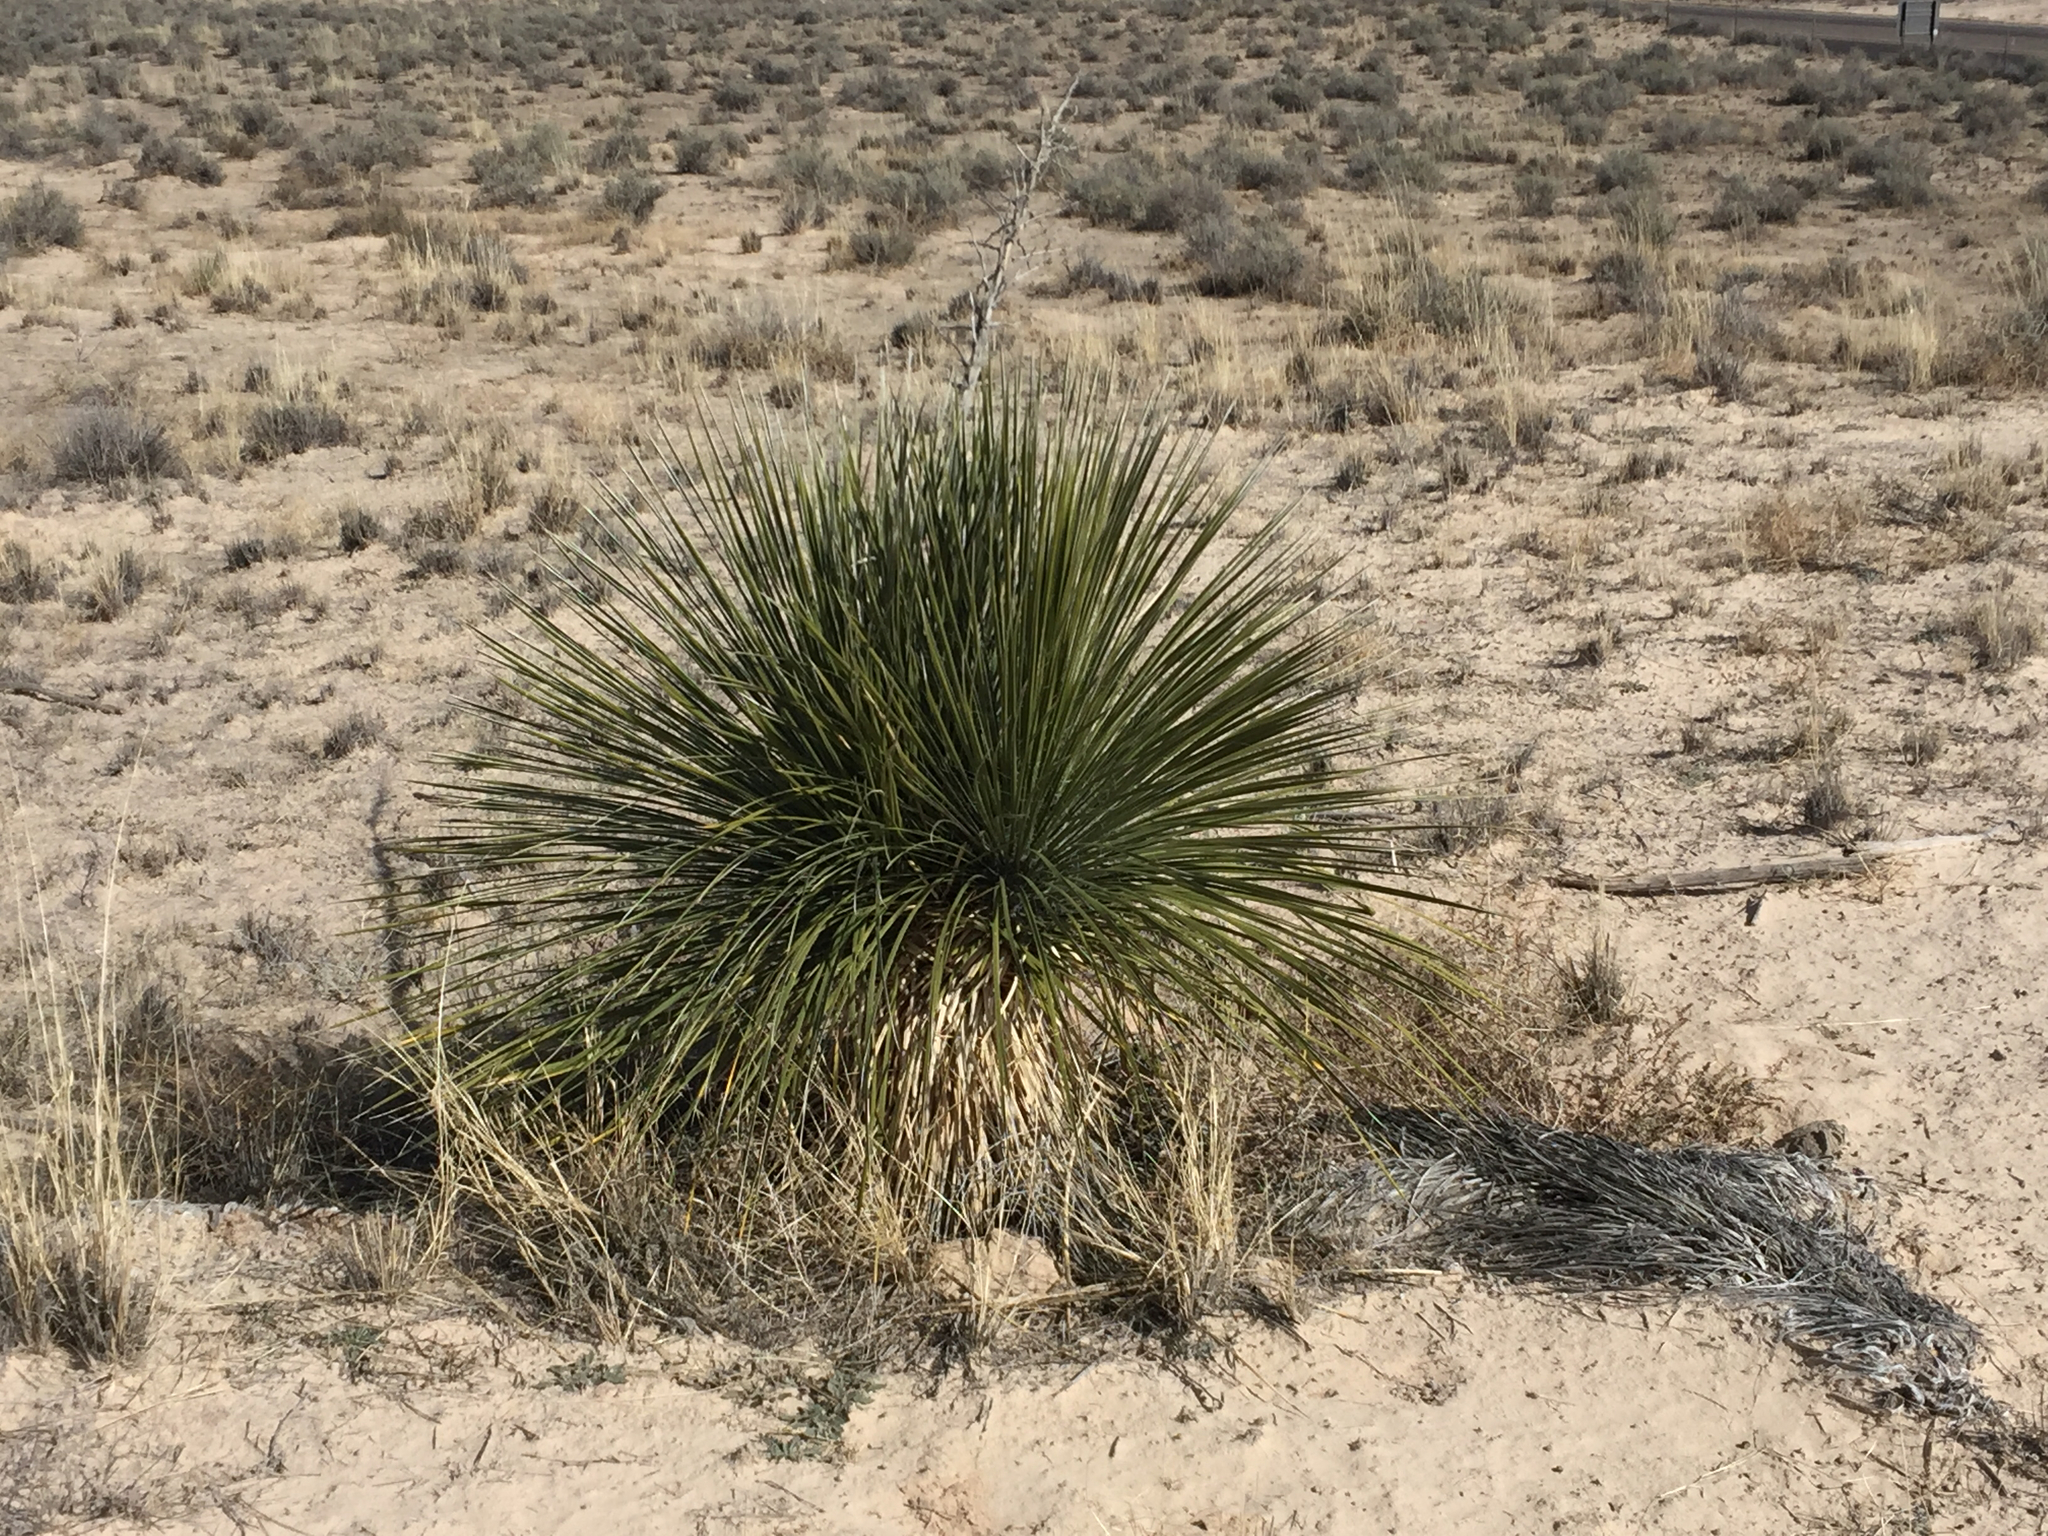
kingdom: Plantae
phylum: Tracheophyta
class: Liliopsida
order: Asparagales
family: Asparagaceae
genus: Yucca
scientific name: Yucca elata
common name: Palmella
